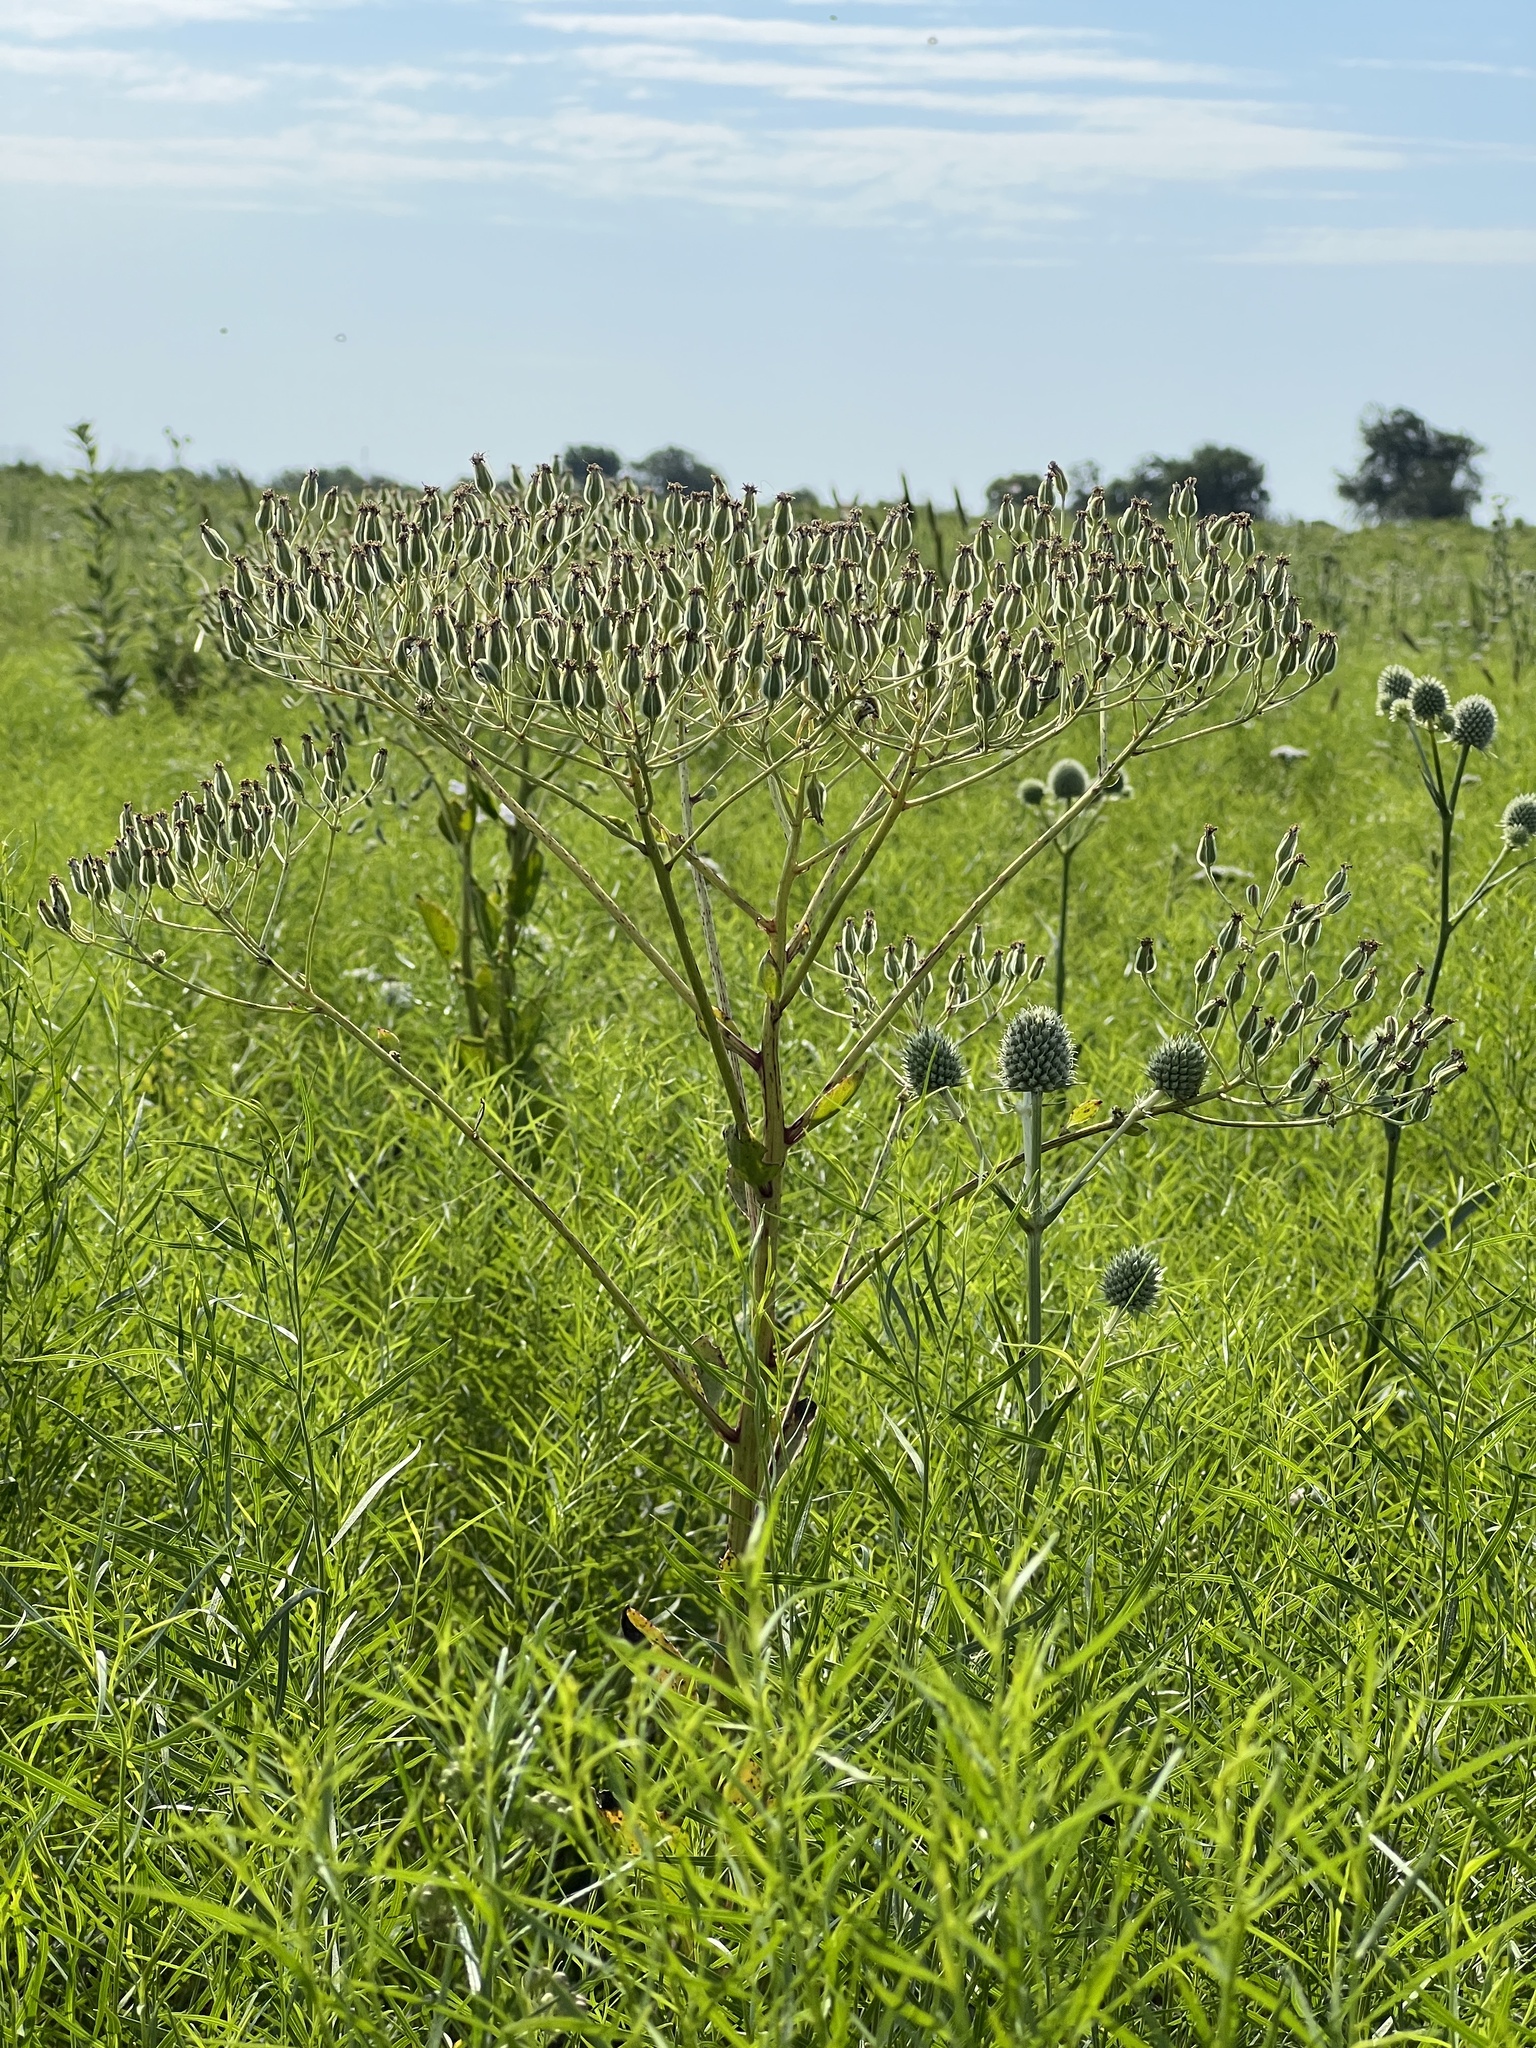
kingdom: Plantae
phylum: Tracheophyta
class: Magnoliopsida
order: Asterales
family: Asteraceae
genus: Arnoglossum
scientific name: Arnoglossum plantagineum
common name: Groove-stemmed indian-plantain
